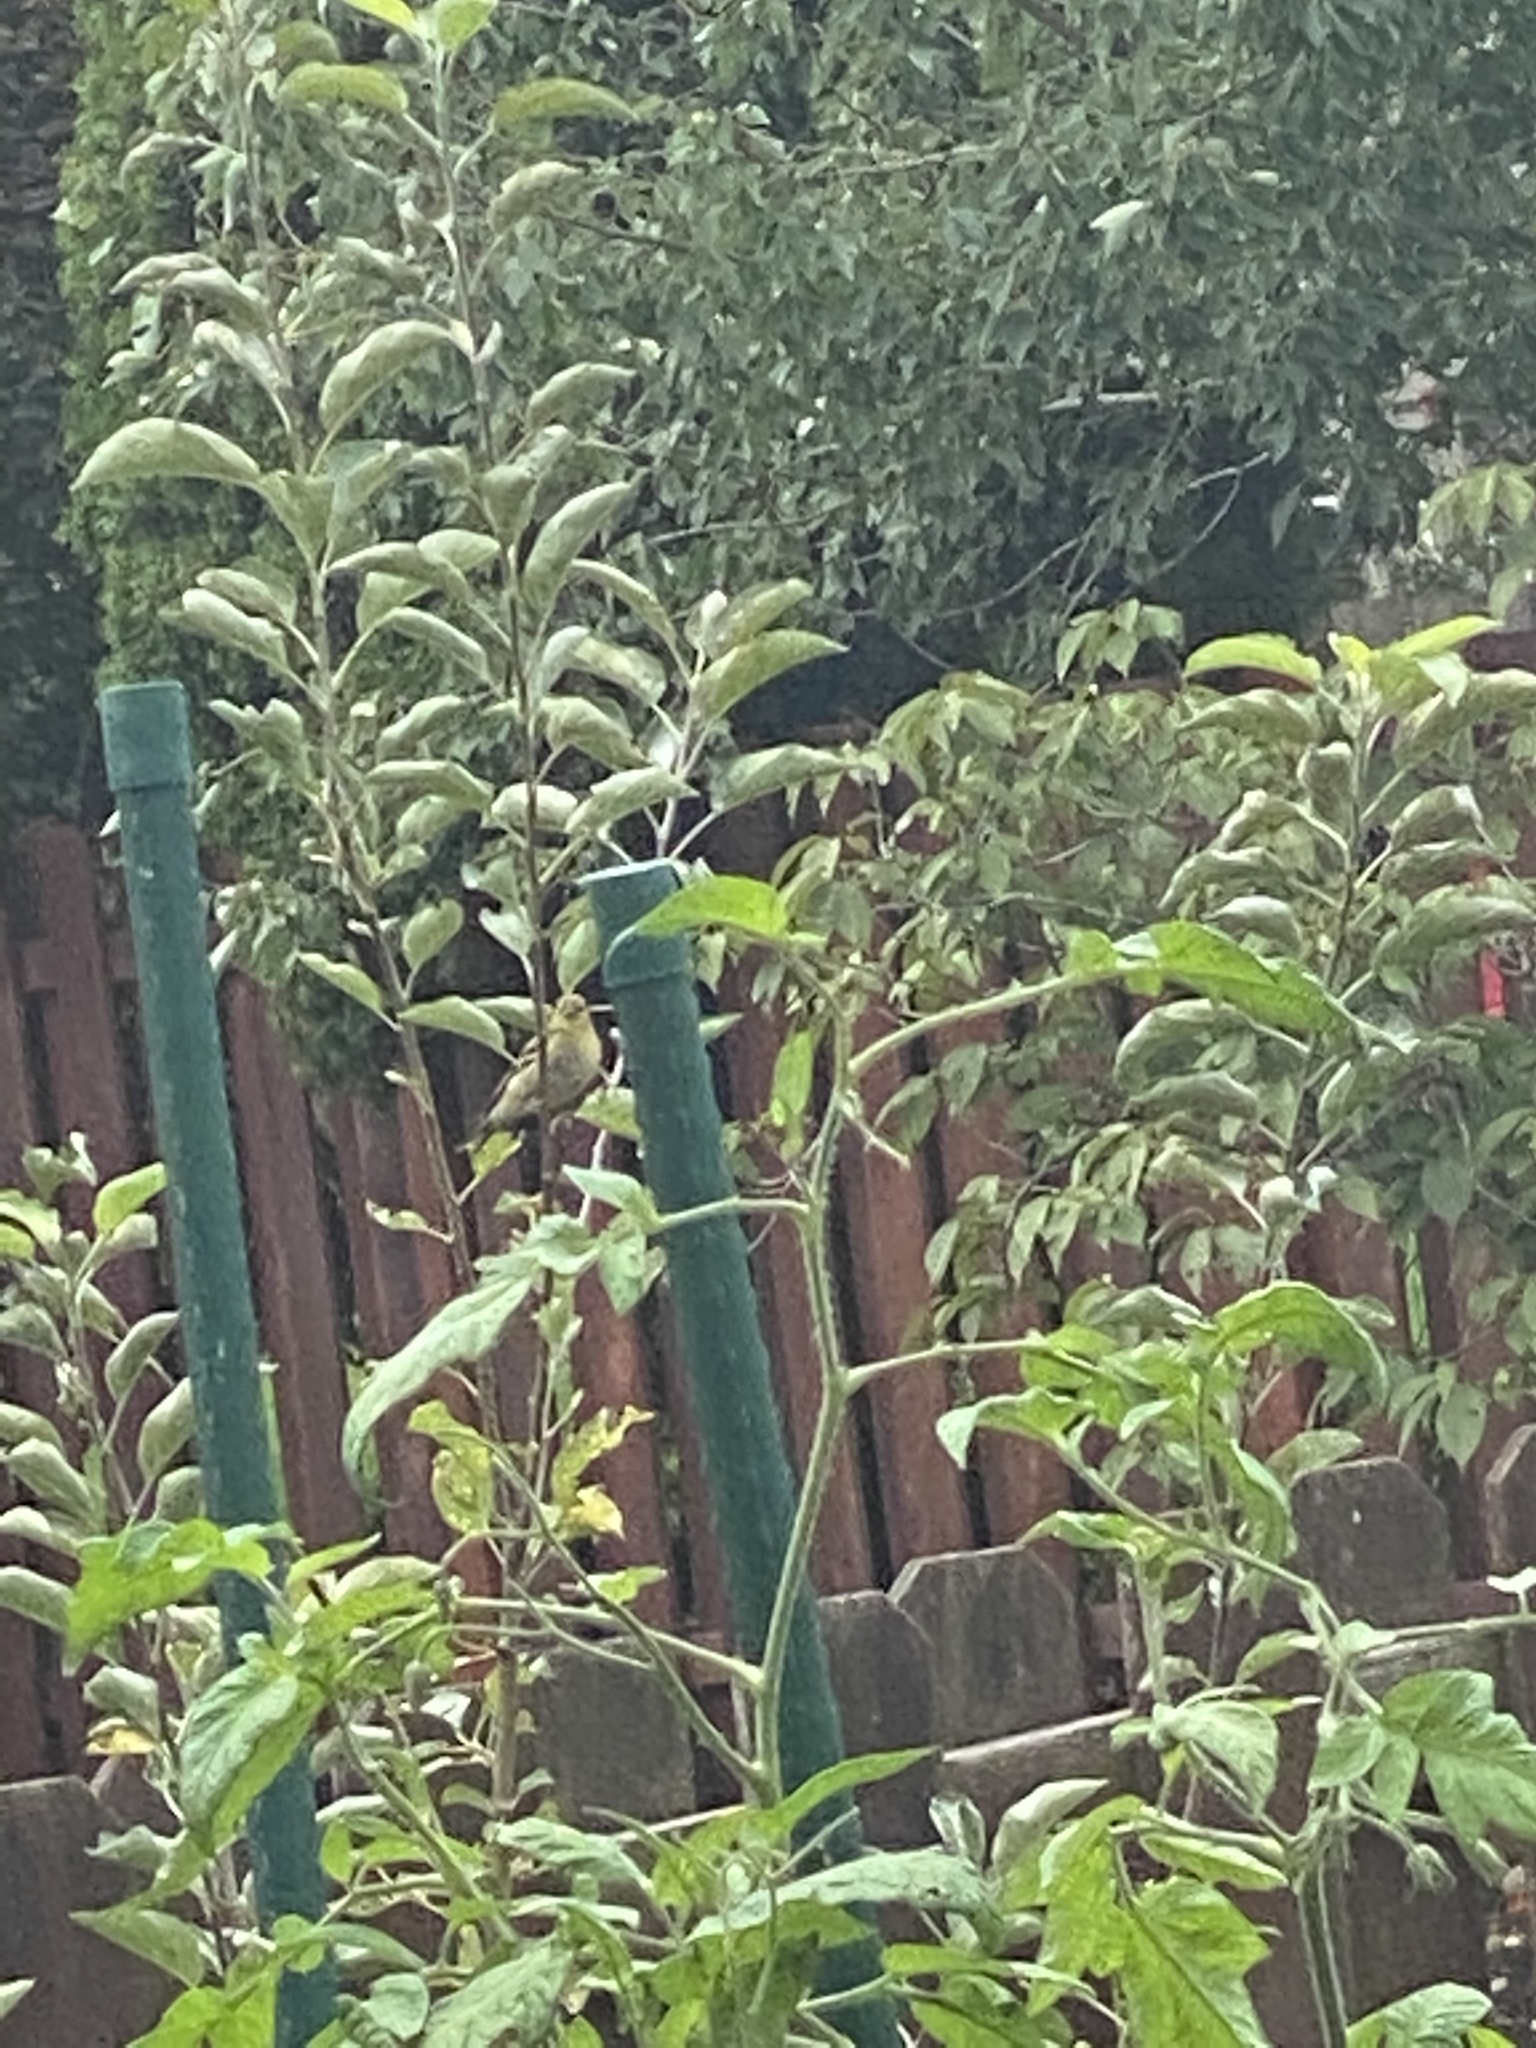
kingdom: Animalia
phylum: Chordata
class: Aves
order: Passeriformes
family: Fringillidae
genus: Spinus
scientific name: Spinus tristis
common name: American goldfinch
